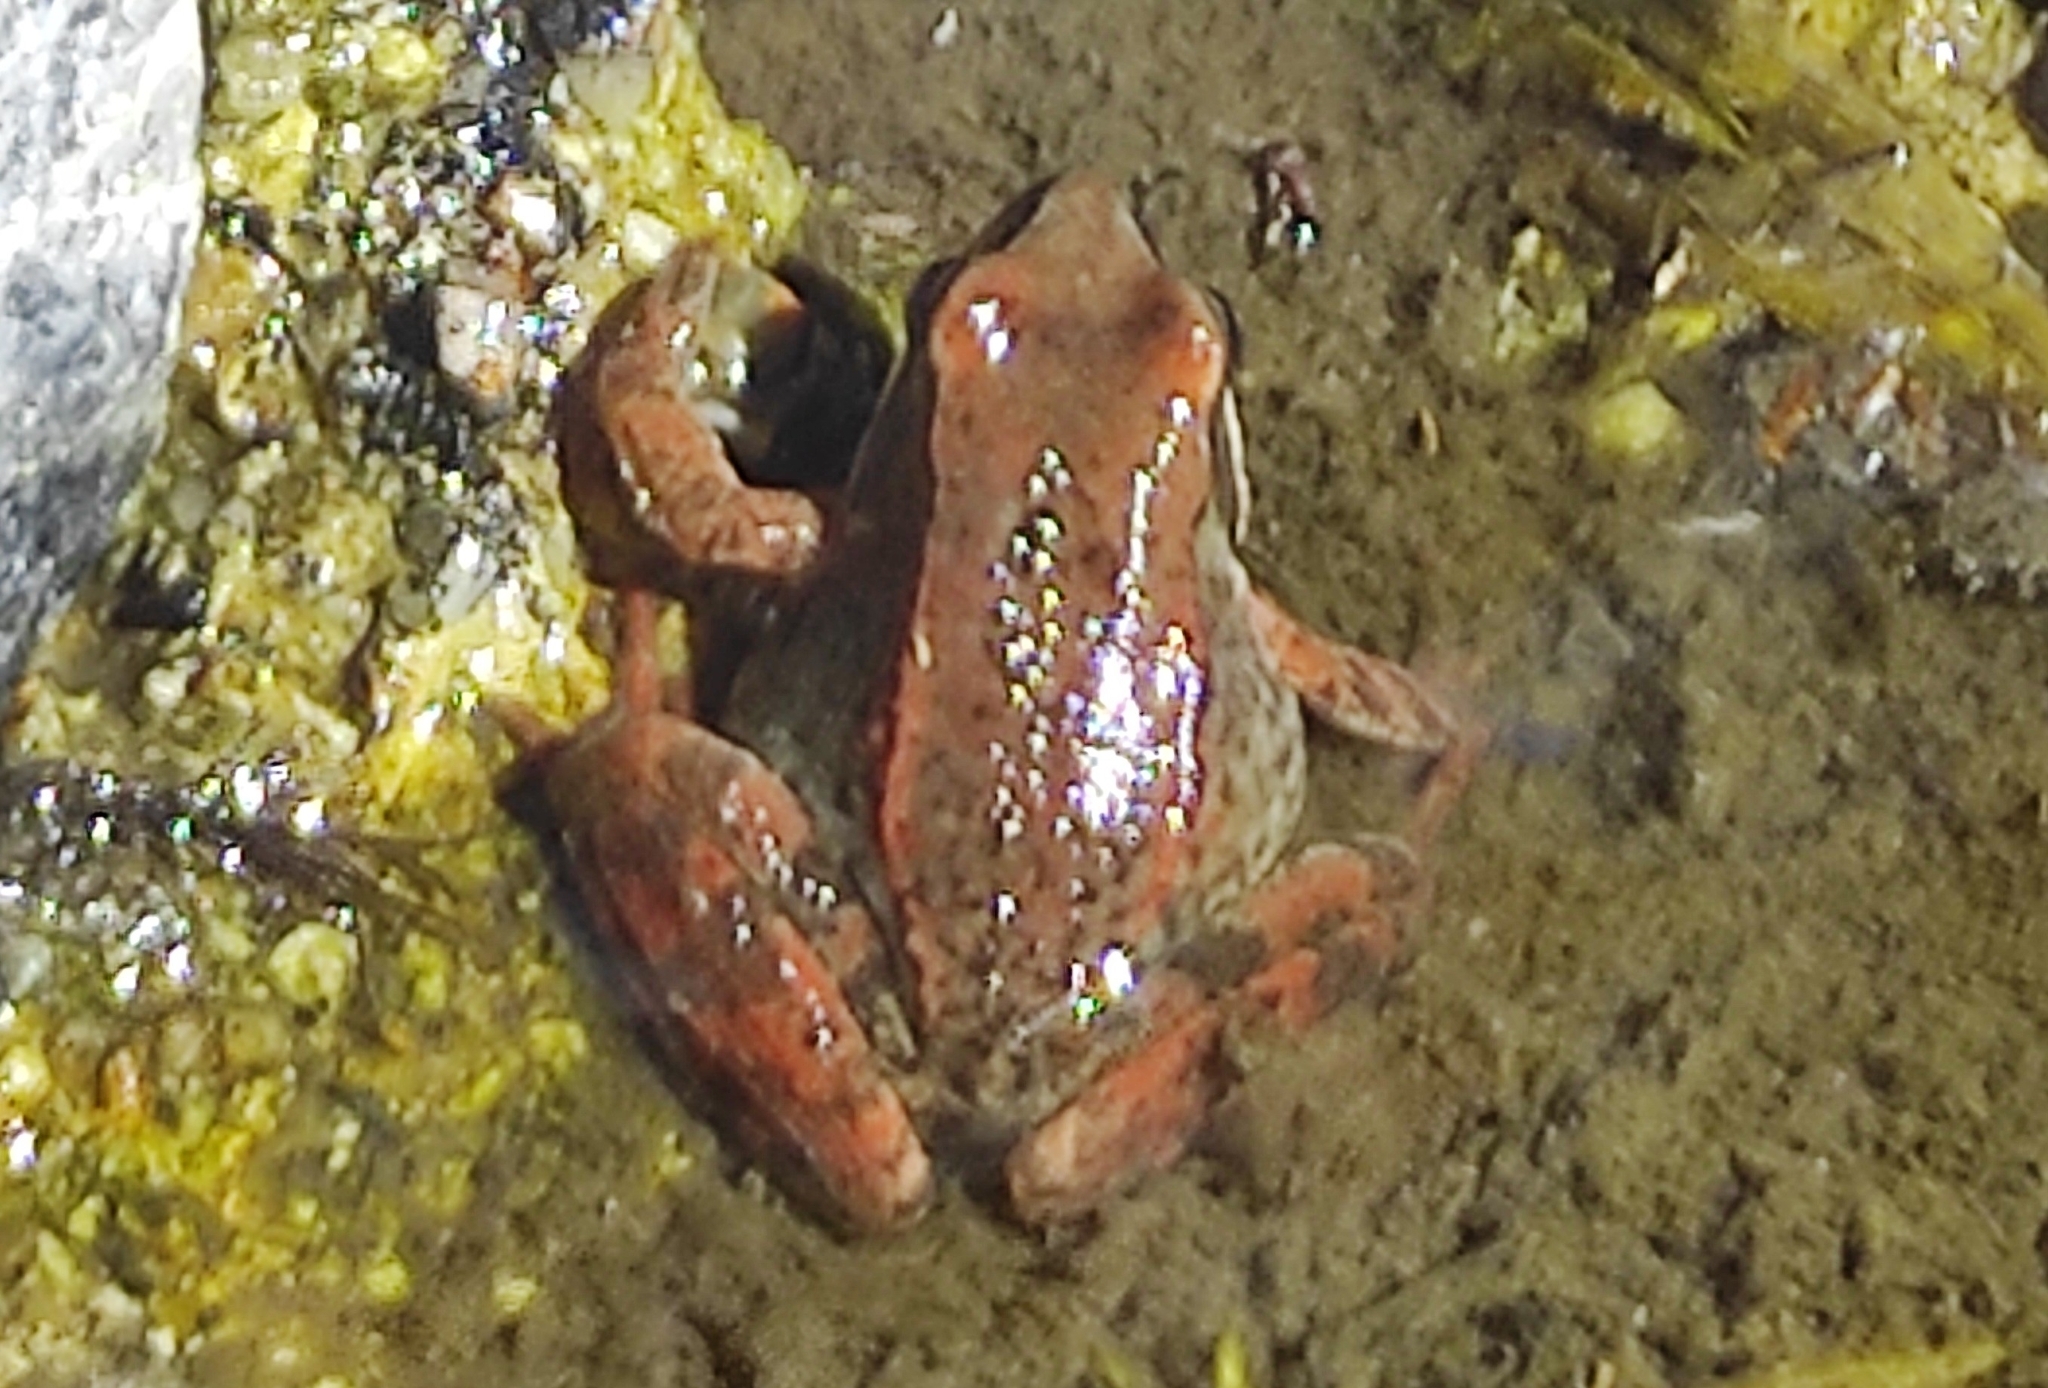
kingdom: Animalia
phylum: Chordata
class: Amphibia
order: Anura
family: Ranidae
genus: Rana
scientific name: Rana iberica
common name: Iberian frog
